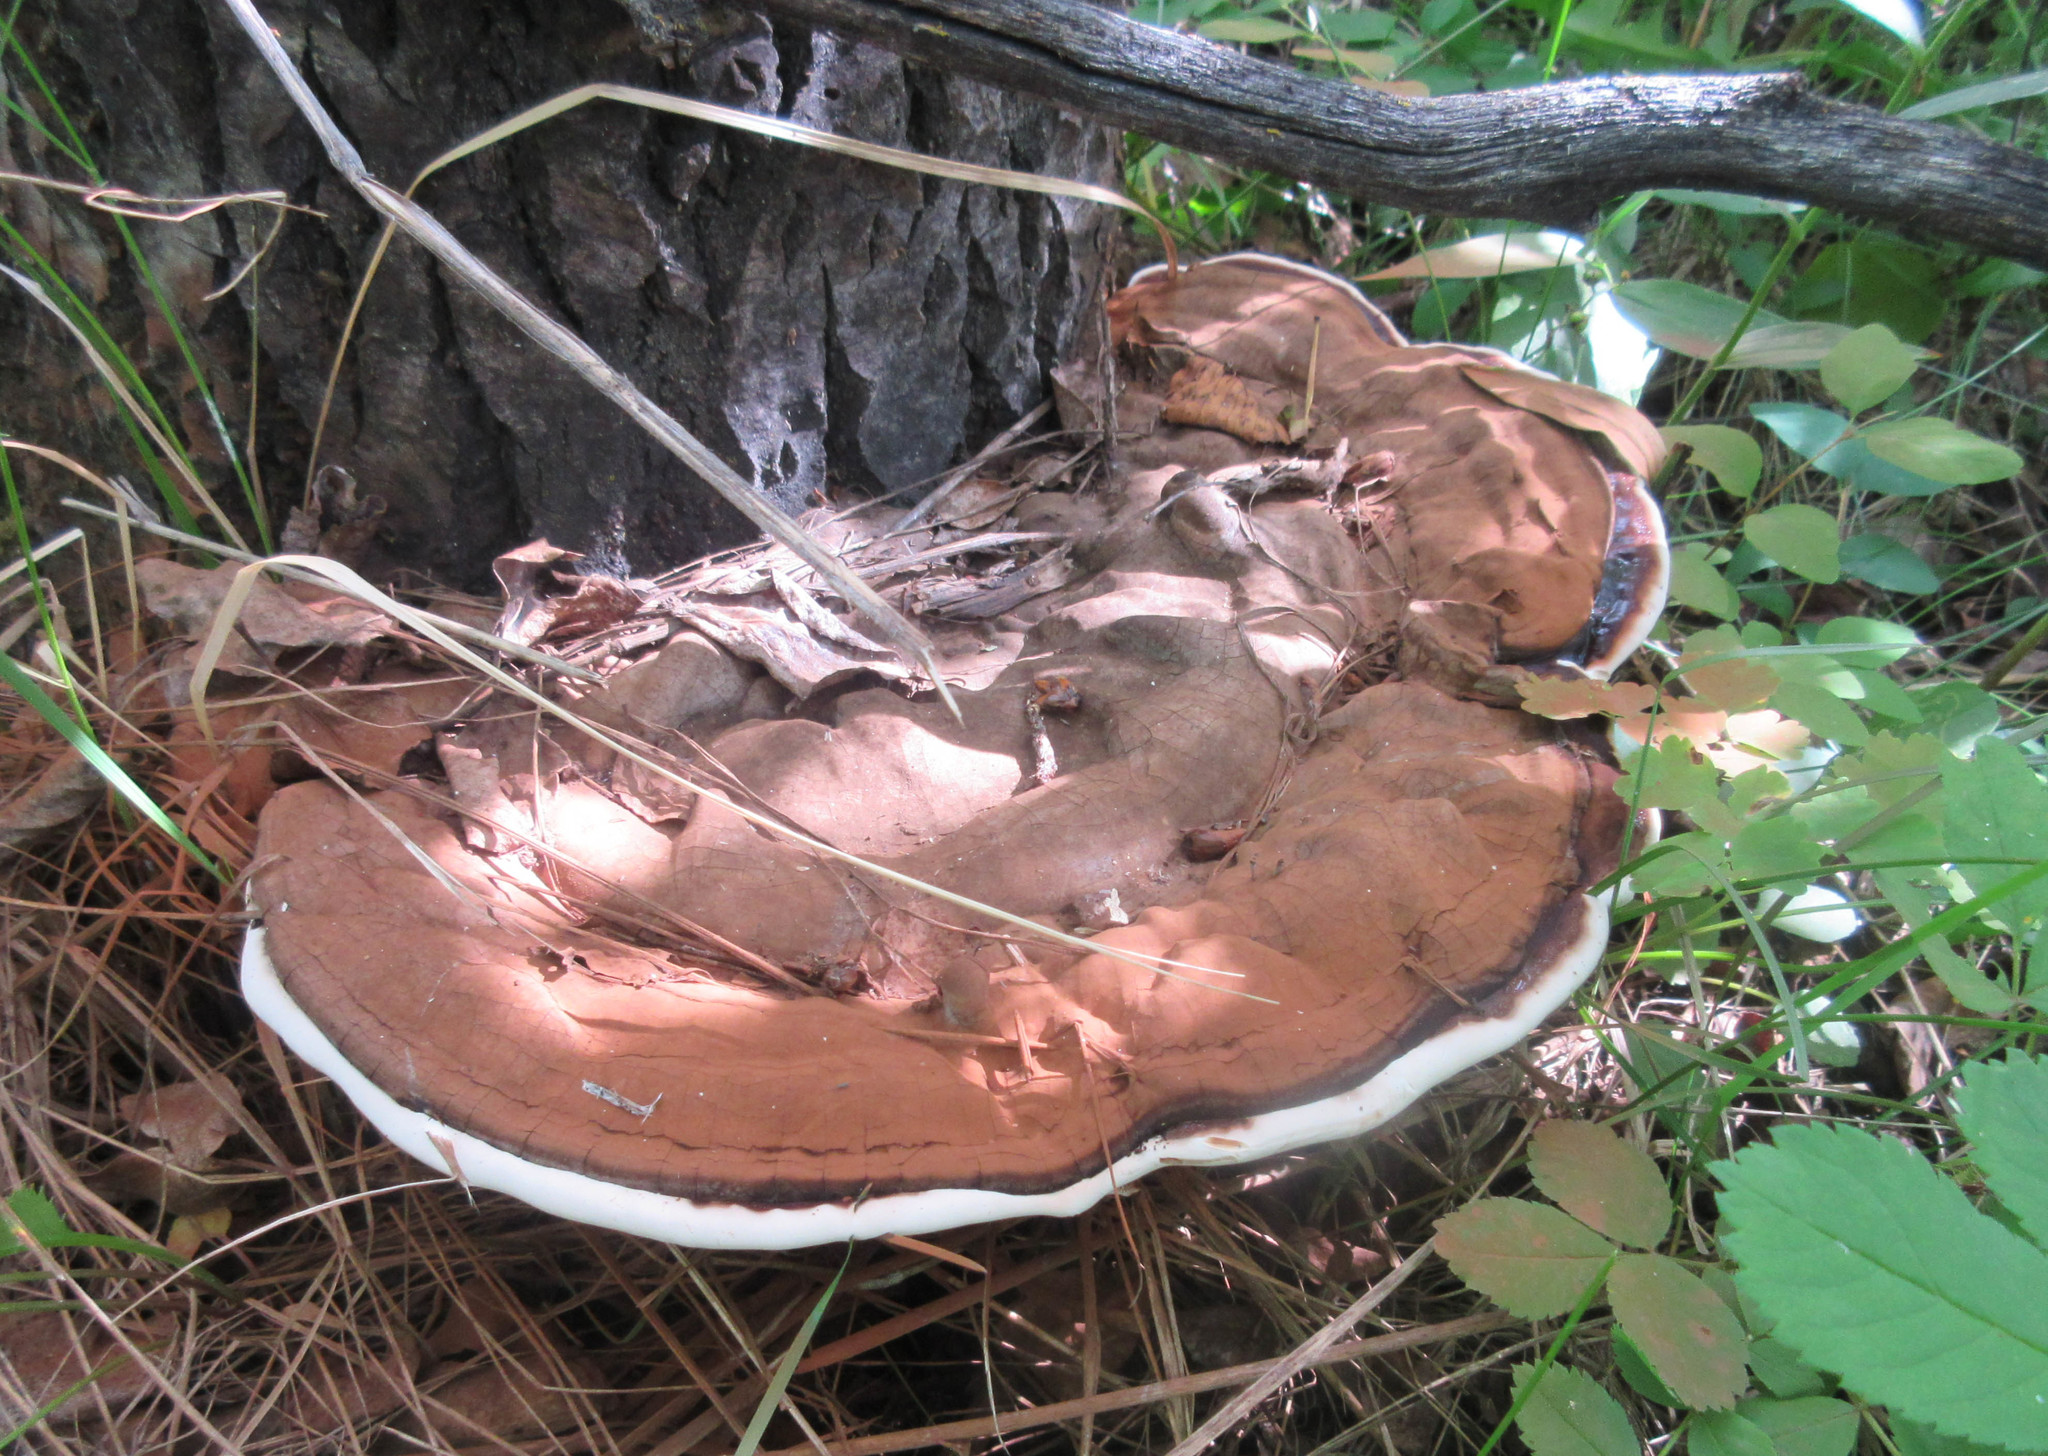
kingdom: Fungi
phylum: Basidiomycota
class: Agaricomycetes
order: Polyporales
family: Polyporaceae
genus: Ganoderma
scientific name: Ganoderma applanatum
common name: Artist's bracket
